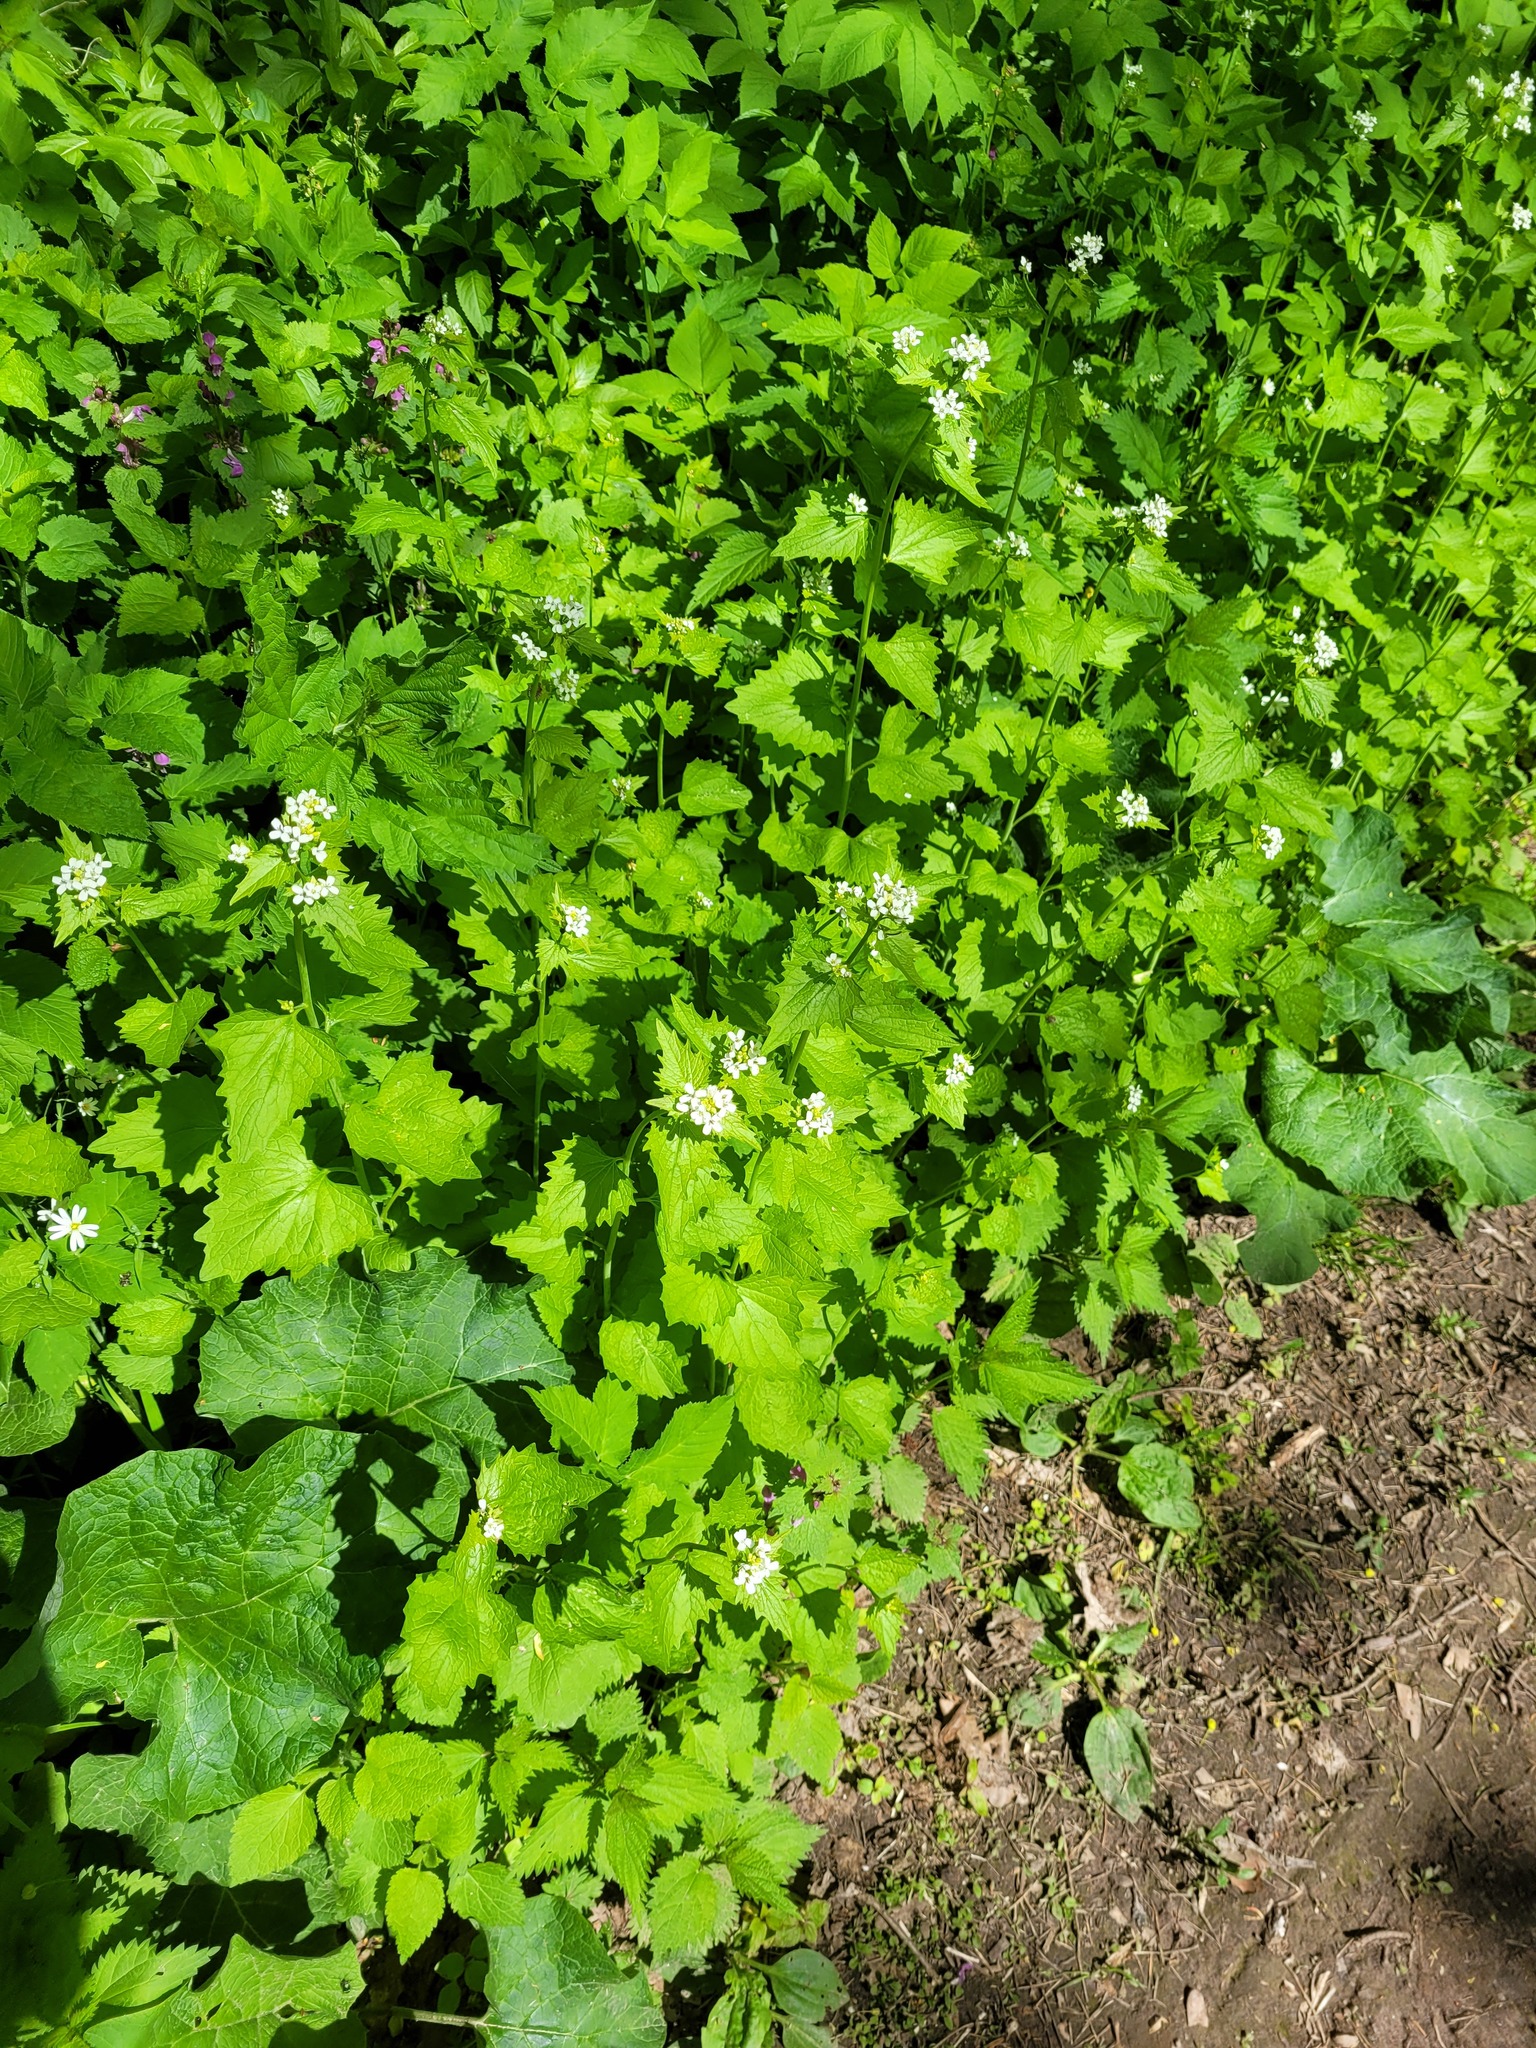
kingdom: Plantae
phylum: Tracheophyta
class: Magnoliopsida
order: Brassicales
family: Brassicaceae
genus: Alliaria
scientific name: Alliaria petiolata
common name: Garlic mustard
